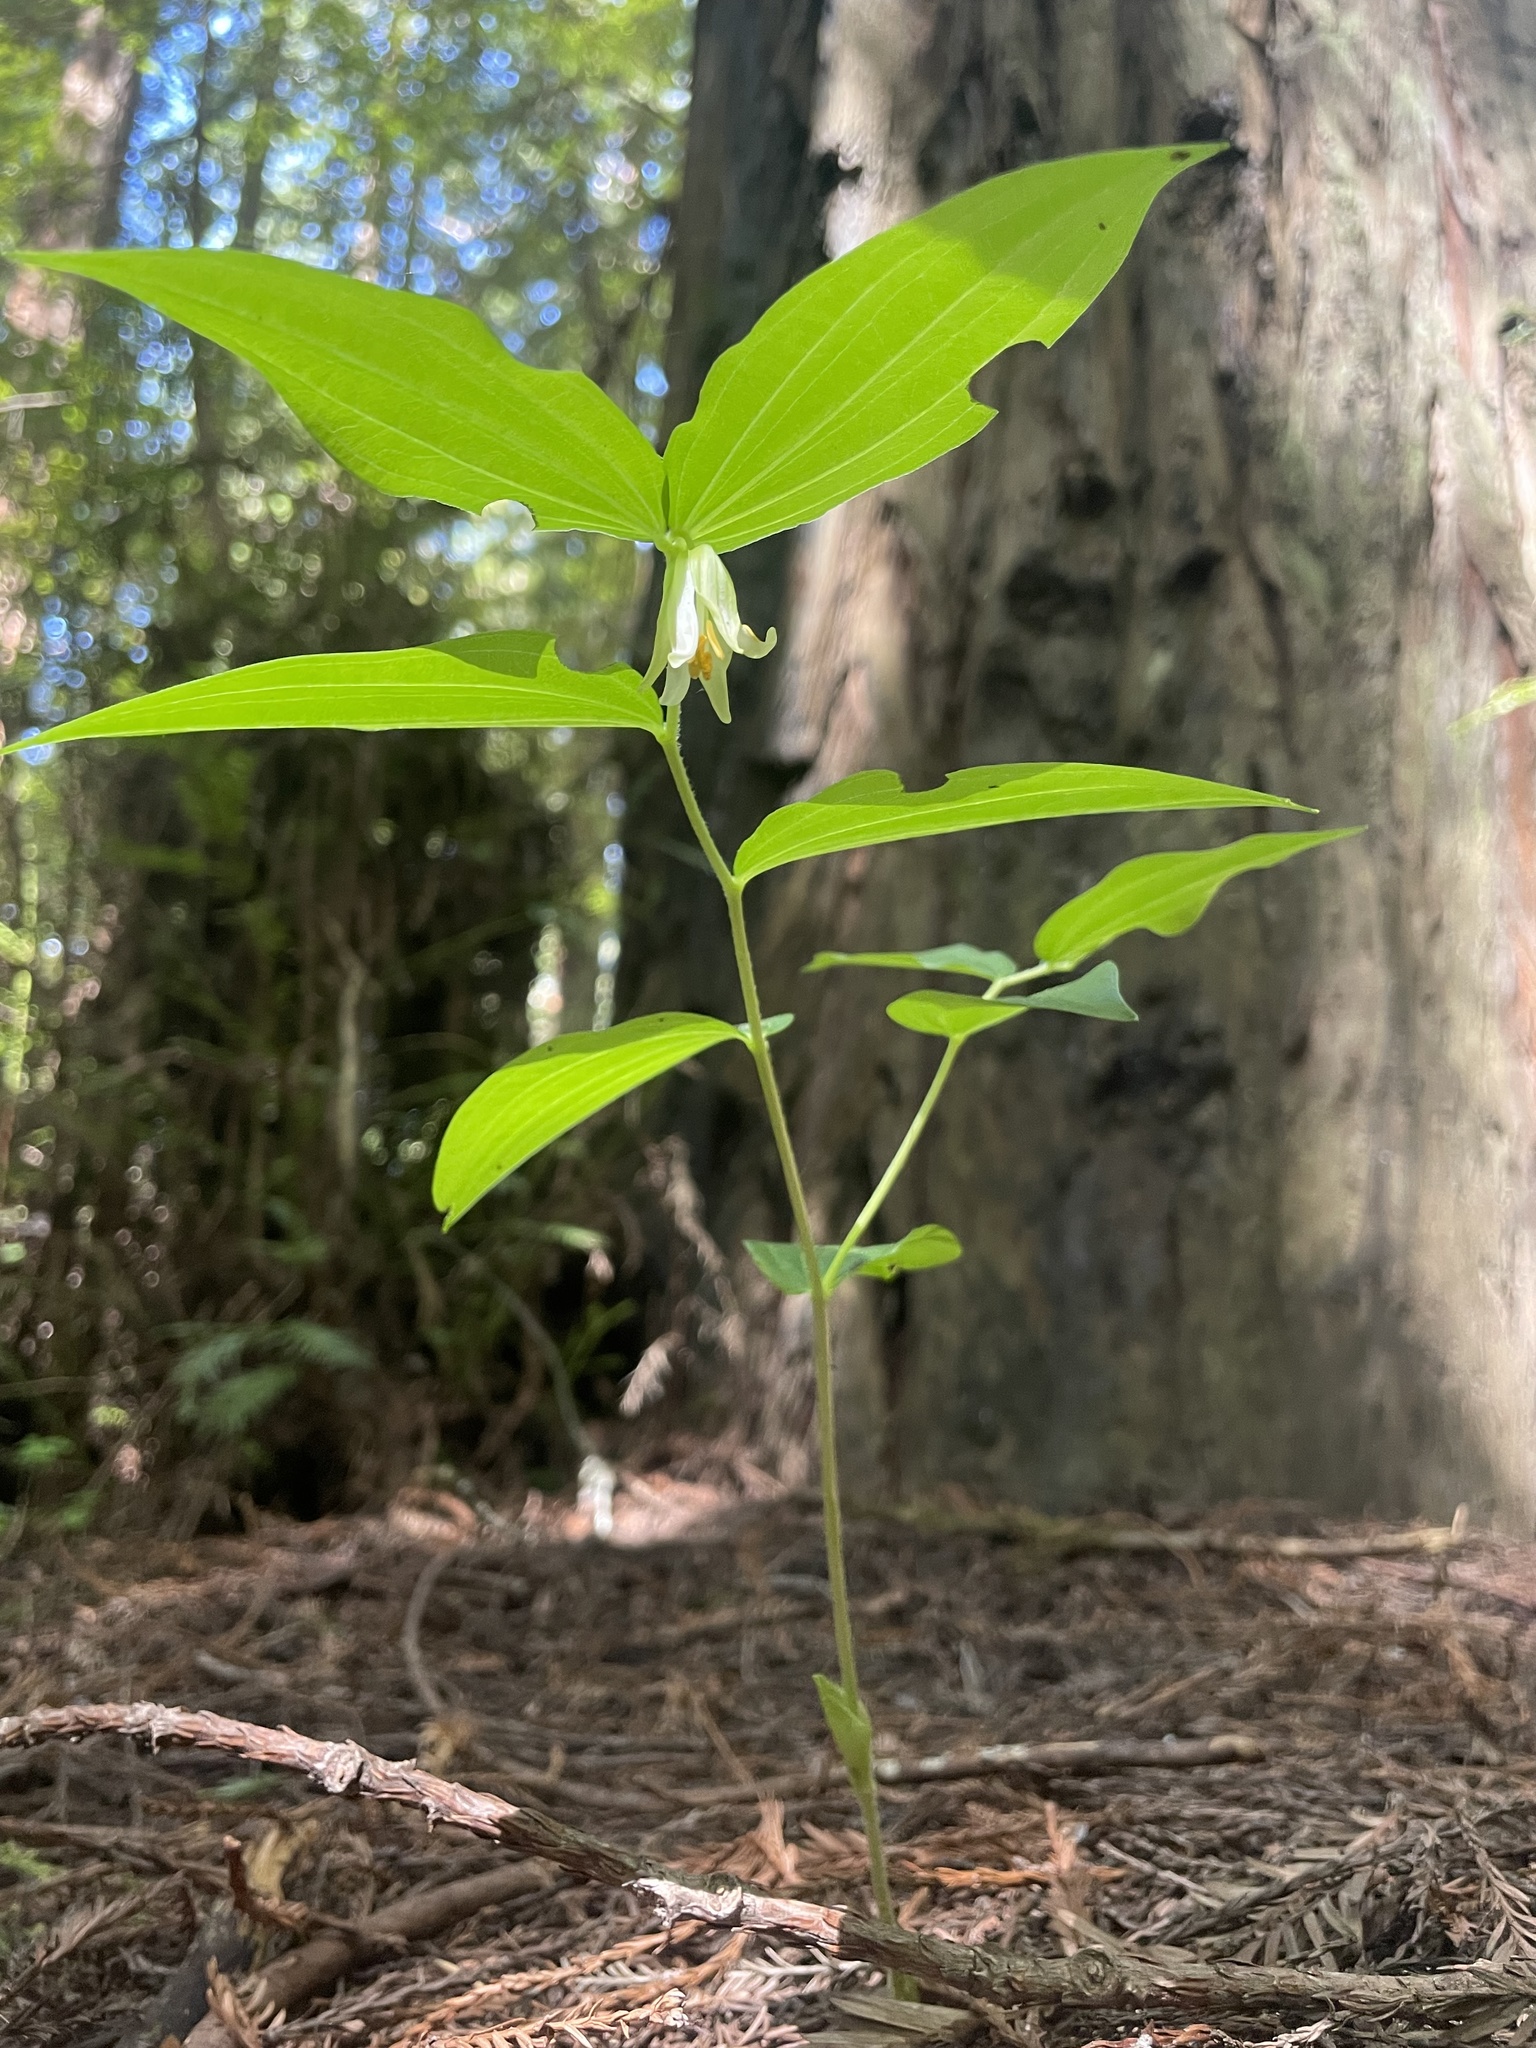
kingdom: Plantae
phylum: Tracheophyta
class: Liliopsida
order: Liliales
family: Liliaceae
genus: Prosartes
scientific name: Prosartes smithii
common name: Fairy-lantern
